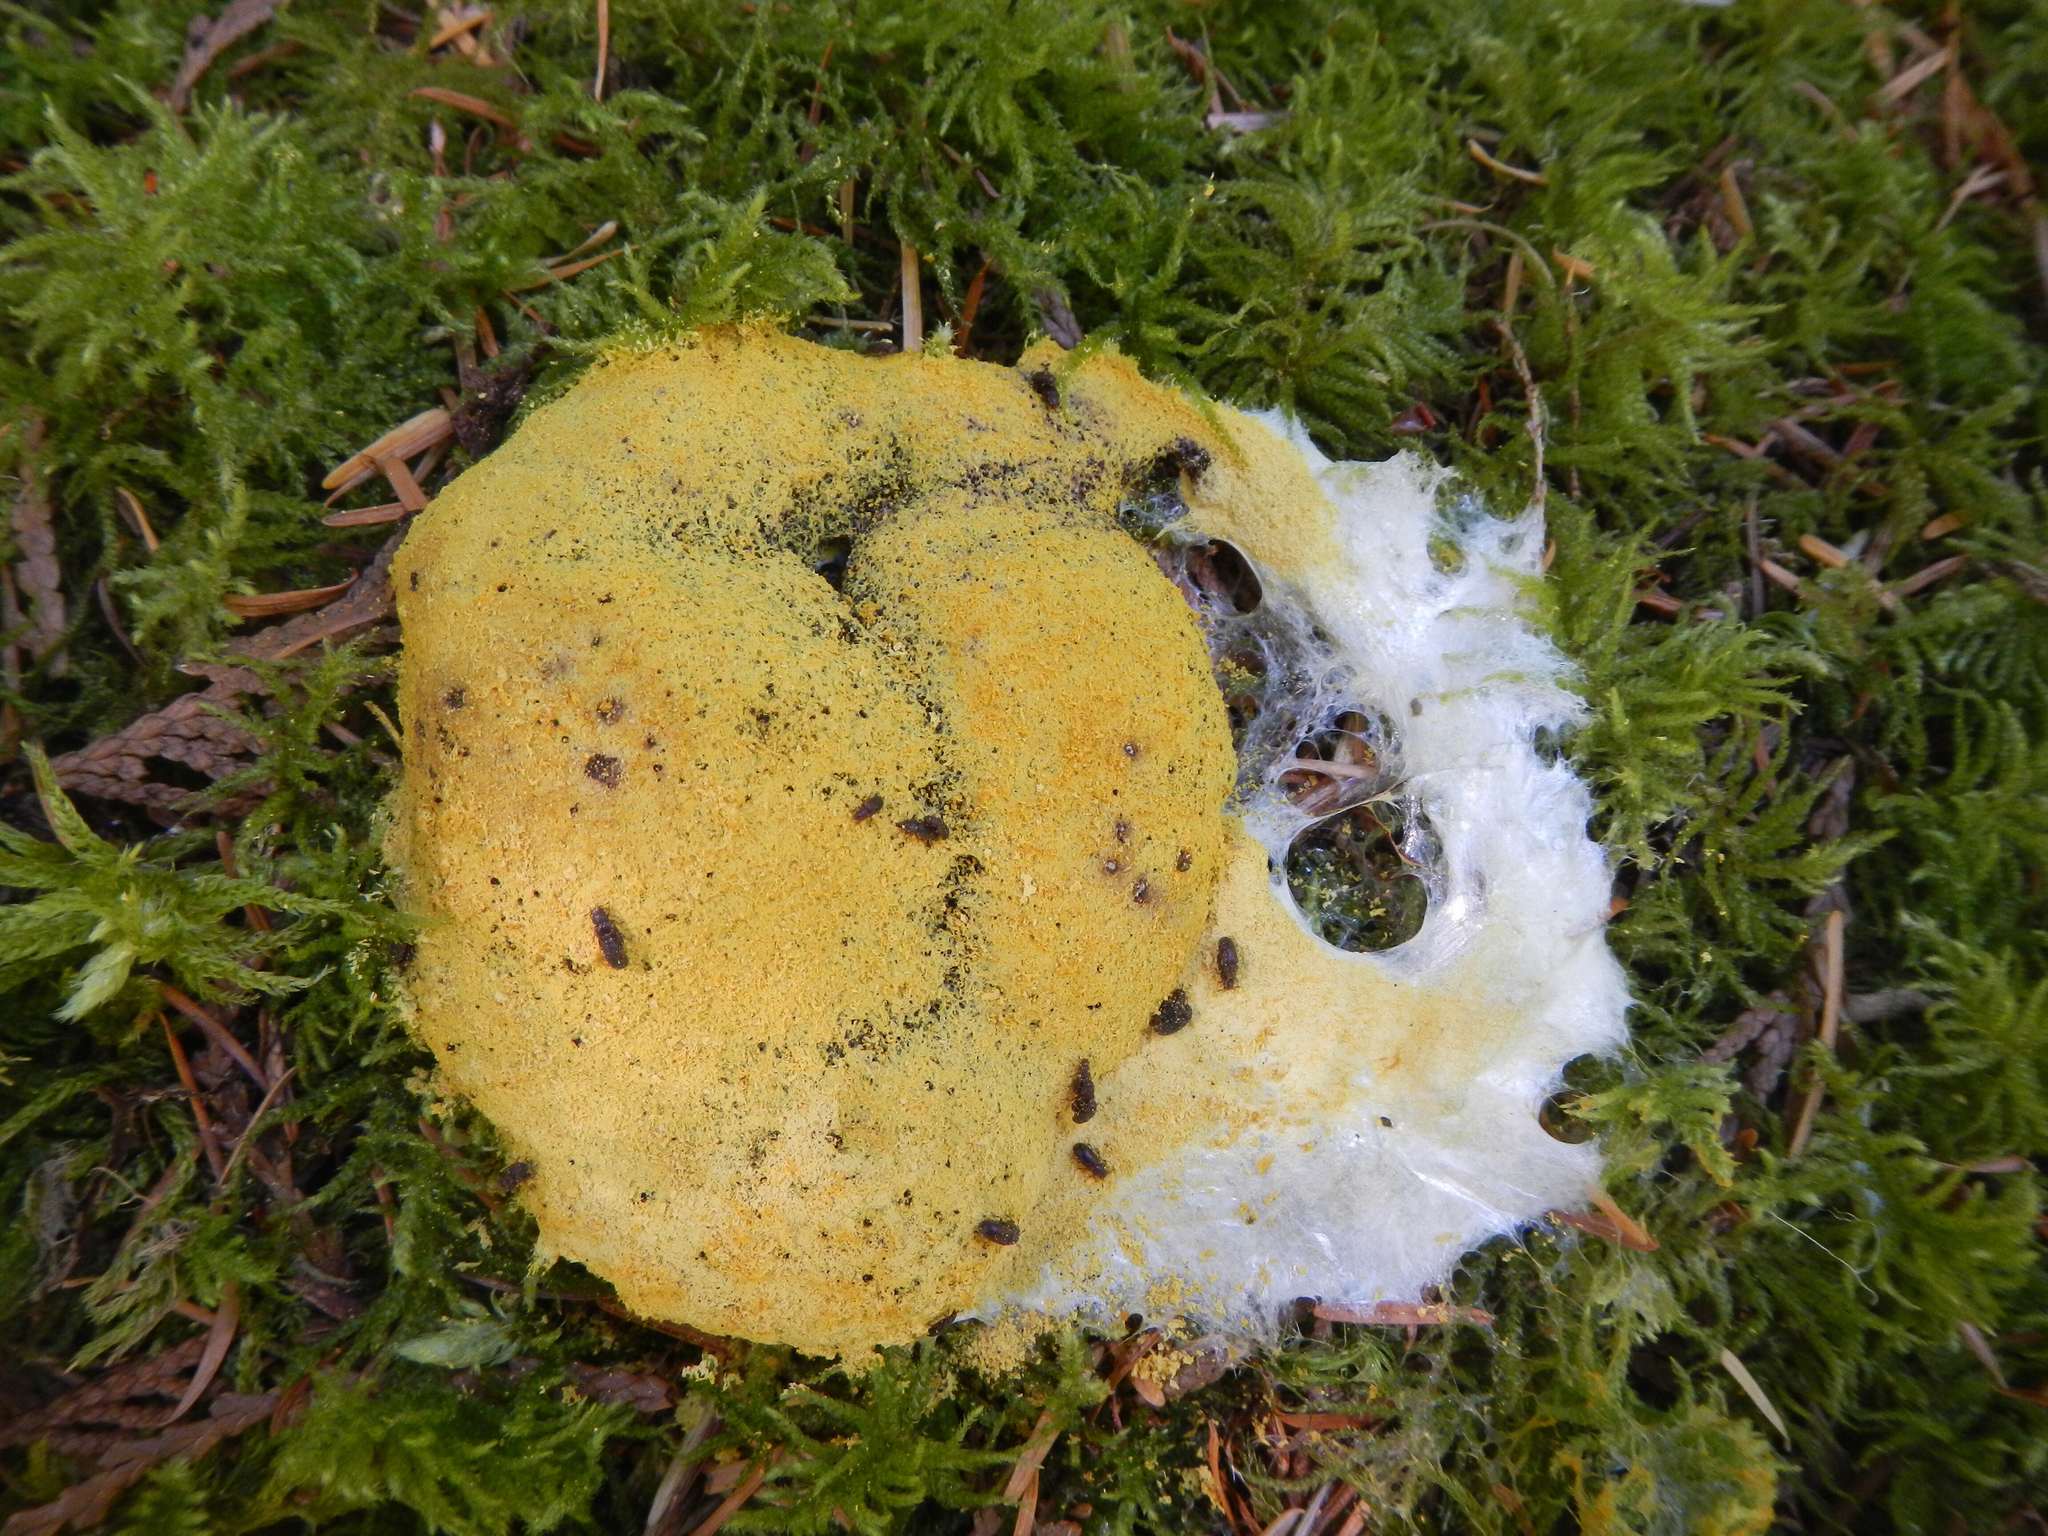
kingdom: Protozoa
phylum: Mycetozoa
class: Myxomycetes
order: Physarales
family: Physaraceae
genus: Fuligo
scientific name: Fuligo septica
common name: Dog vomit slime mold
